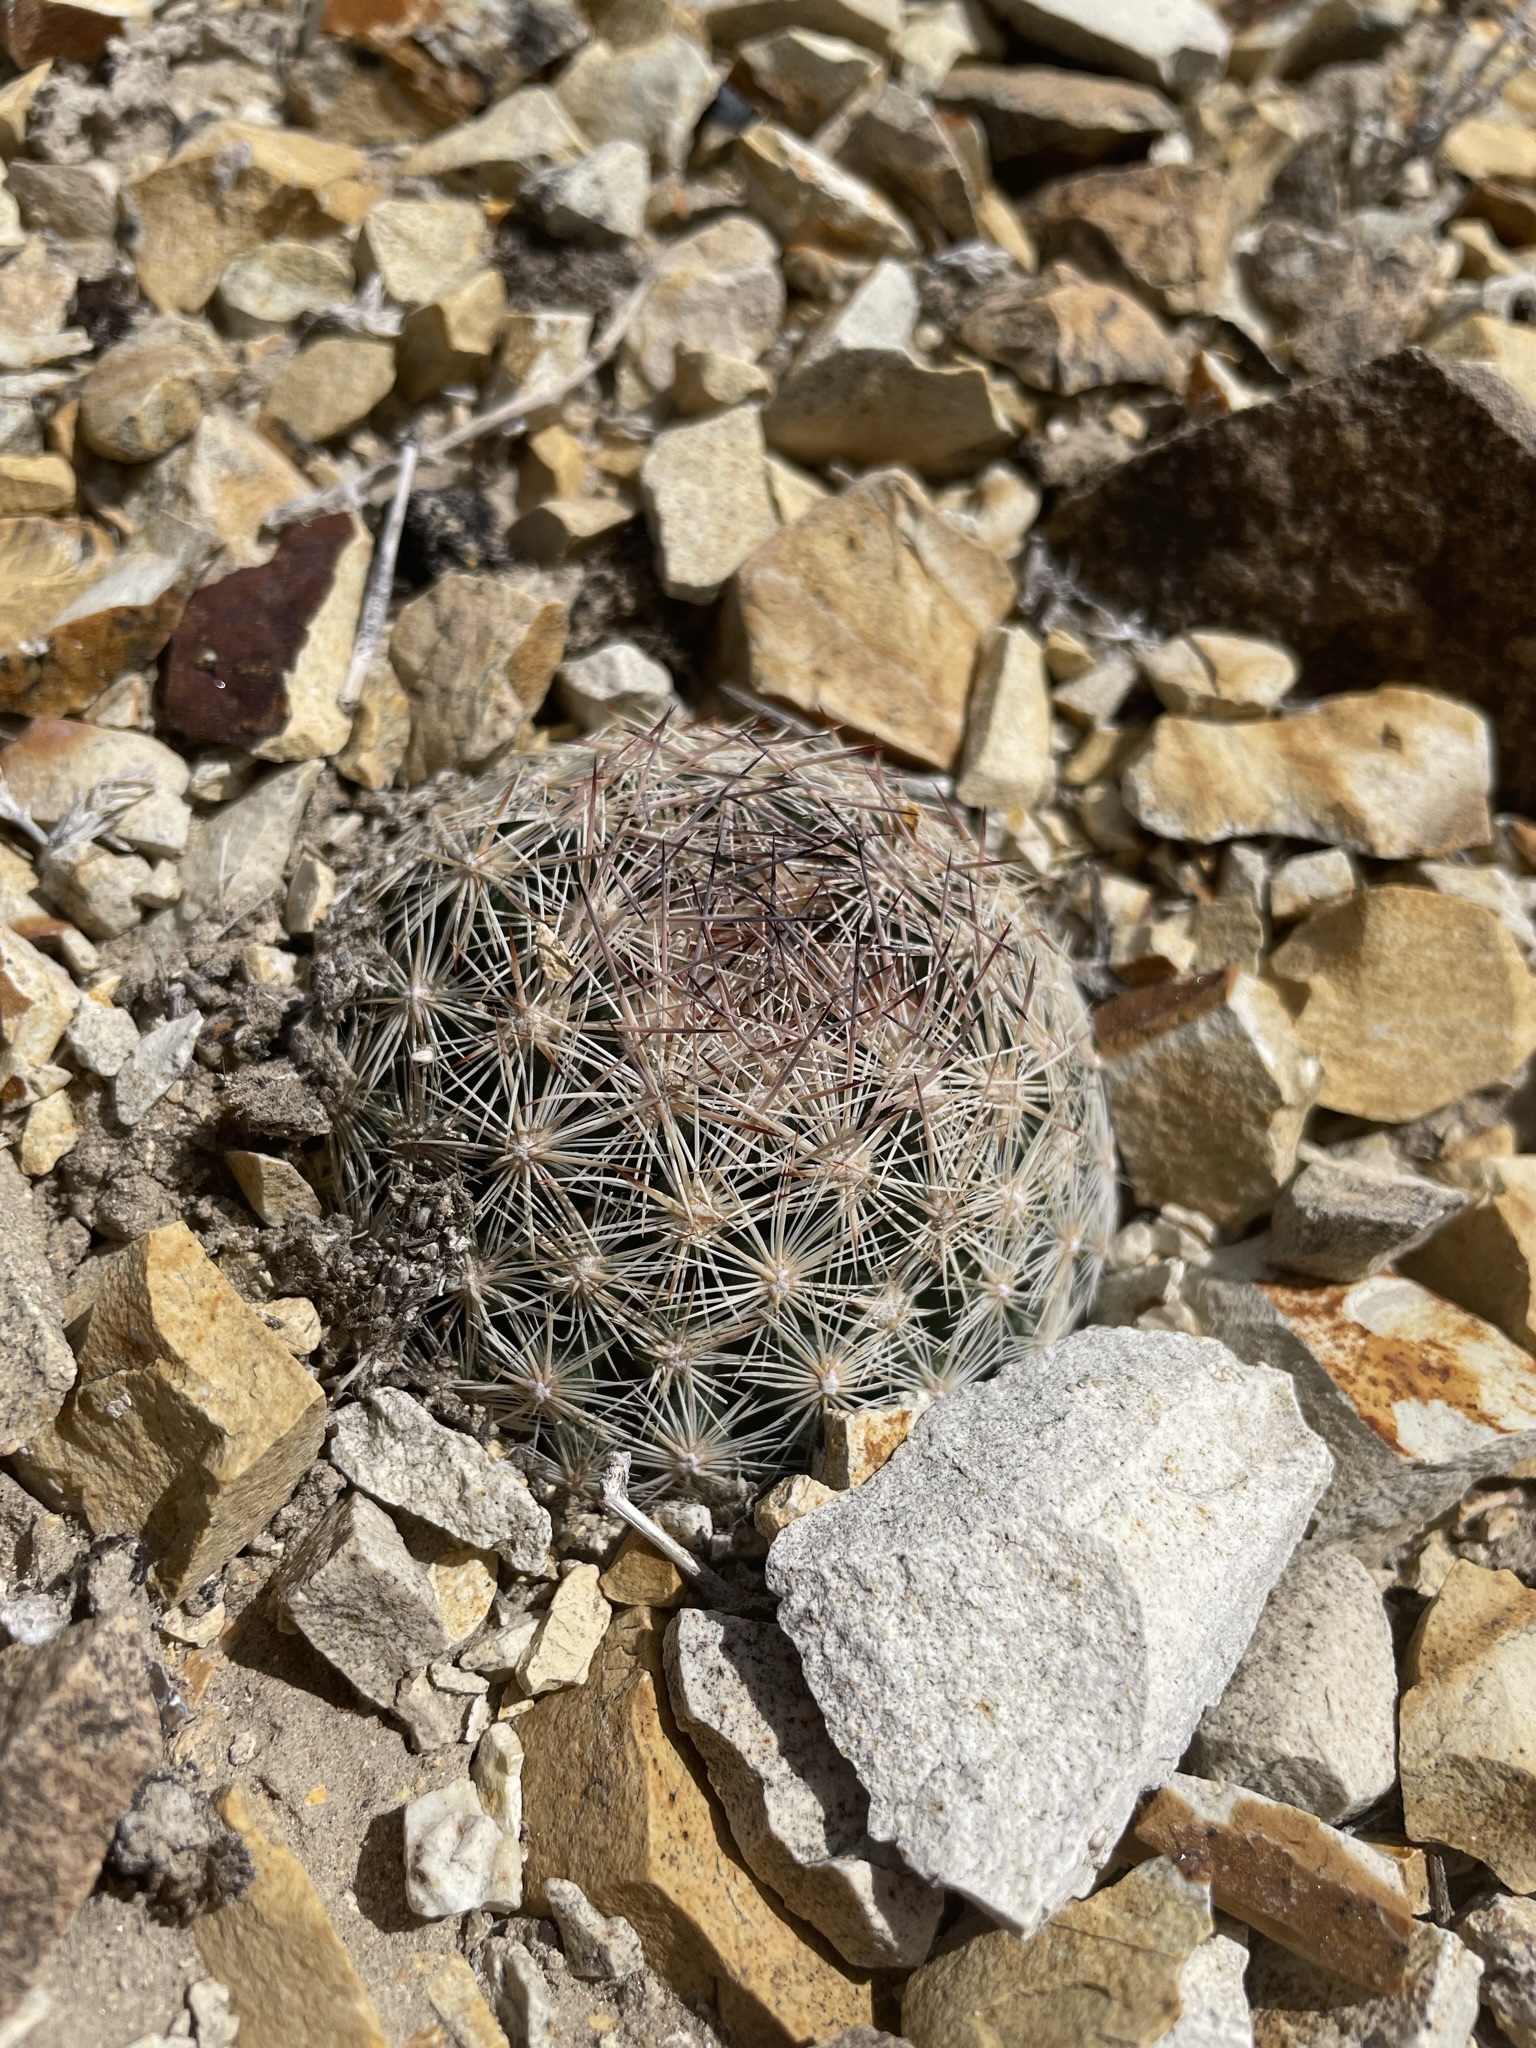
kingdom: Plantae
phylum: Tracheophyta
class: Magnoliopsida
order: Caryophyllales
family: Cactaceae
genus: Pelecyphora
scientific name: Pelecyphora vivipara
